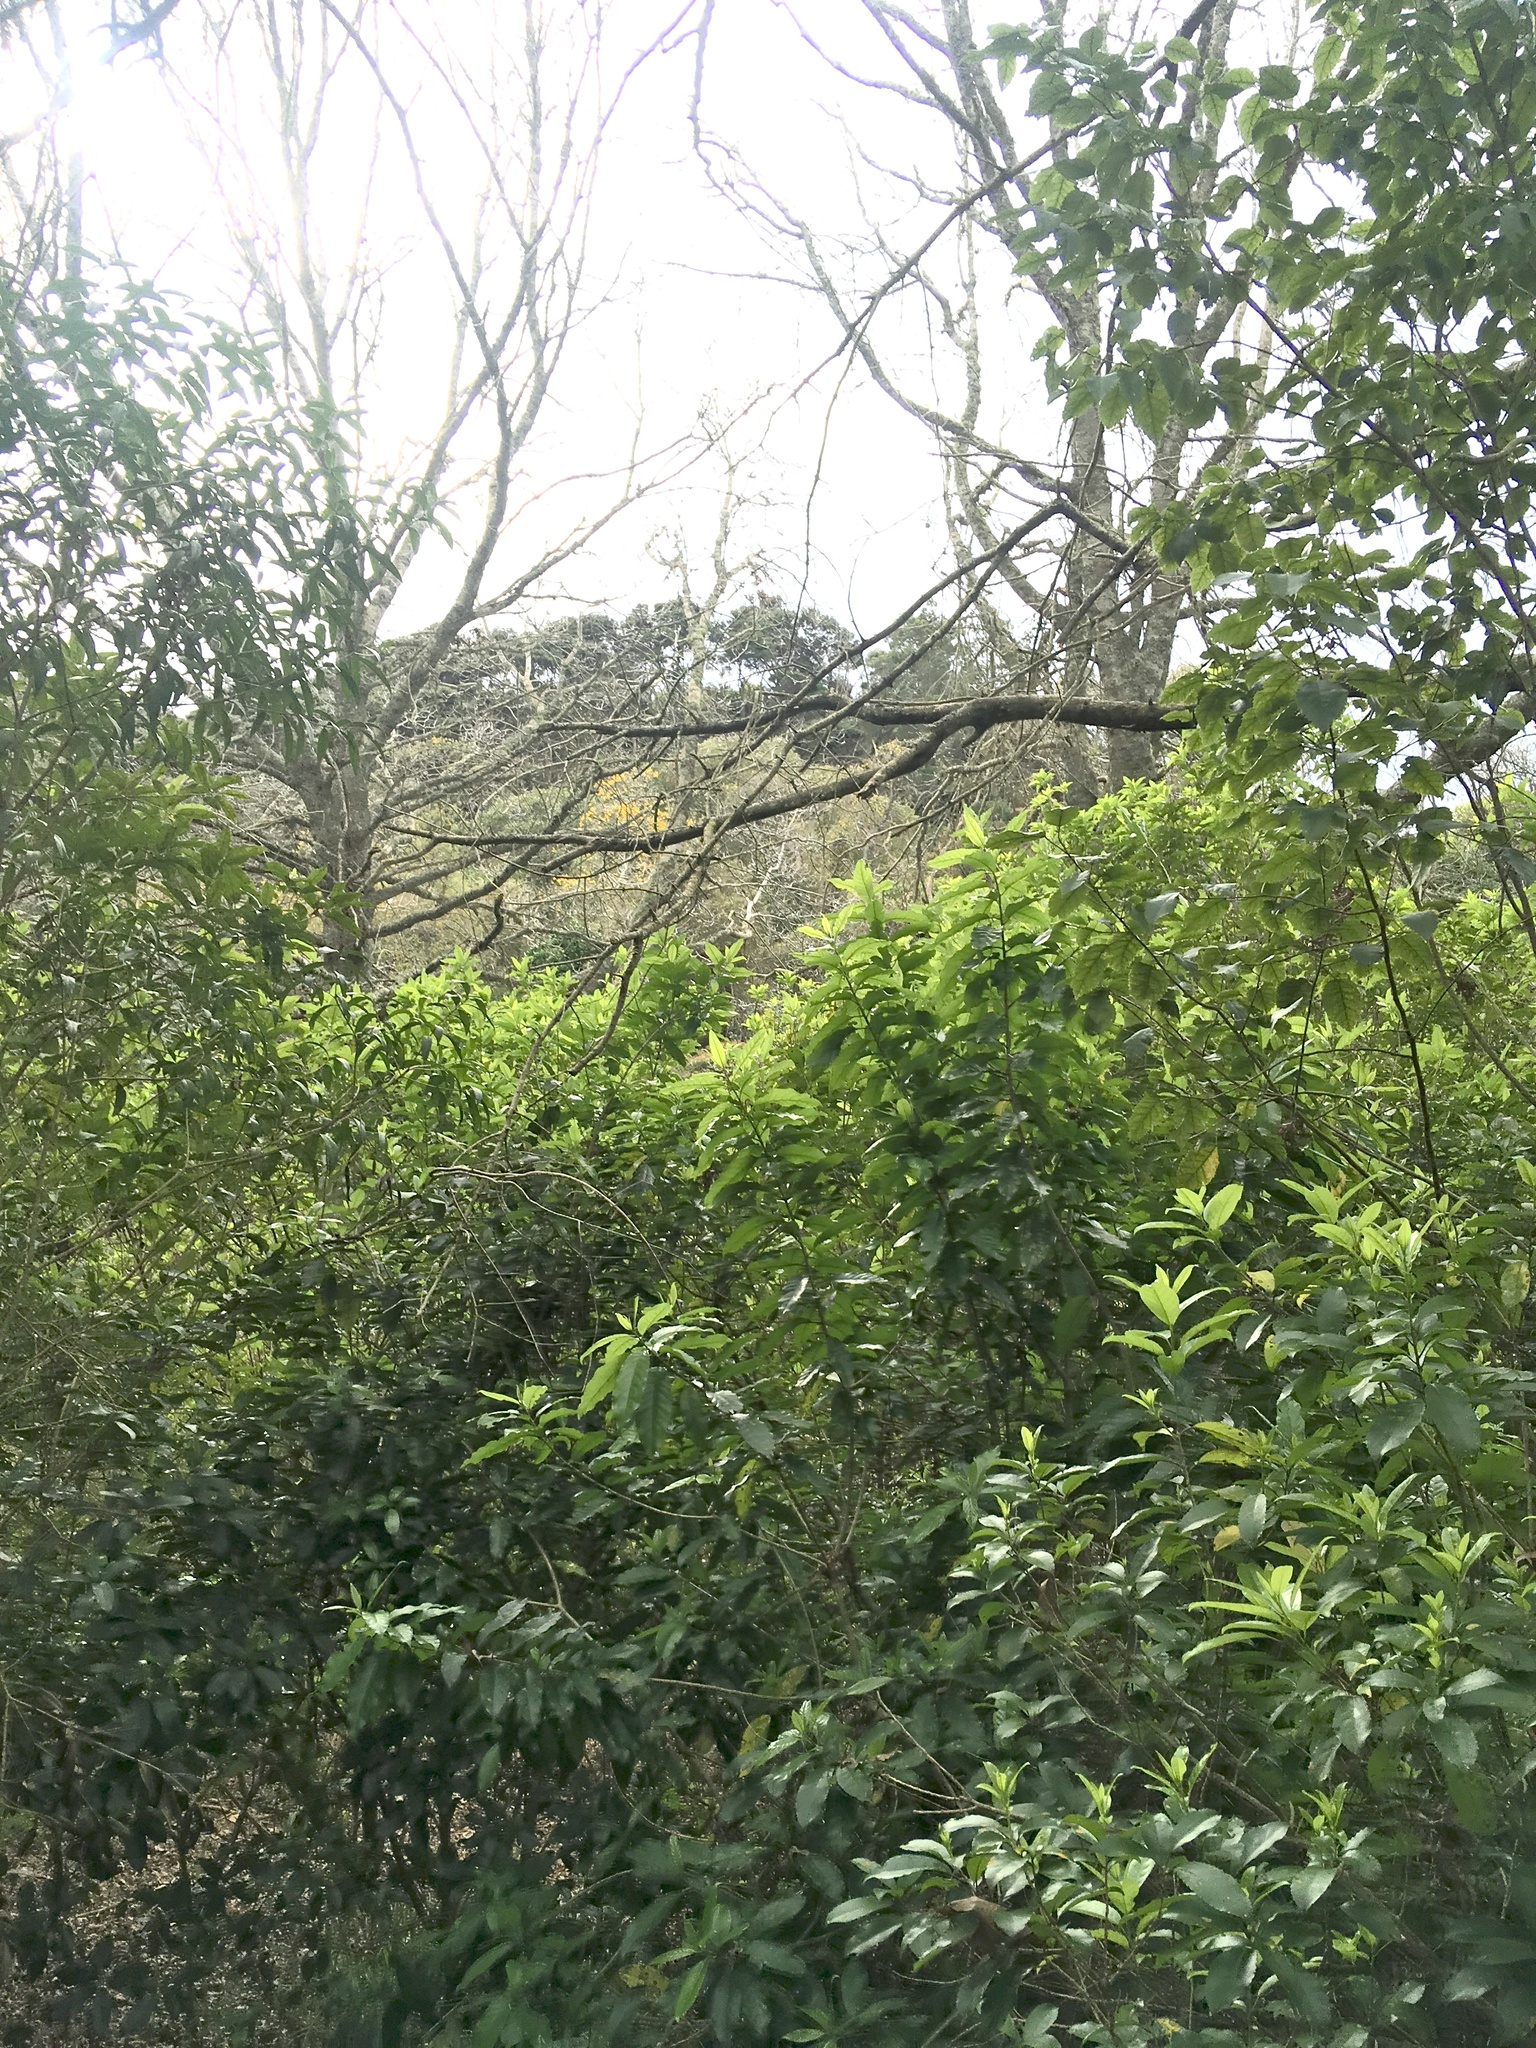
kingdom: Plantae
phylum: Tracheophyta
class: Magnoliopsida
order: Malpighiales
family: Violaceae
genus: Melicytus
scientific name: Melicytus ramiflorus
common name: Mahoe
